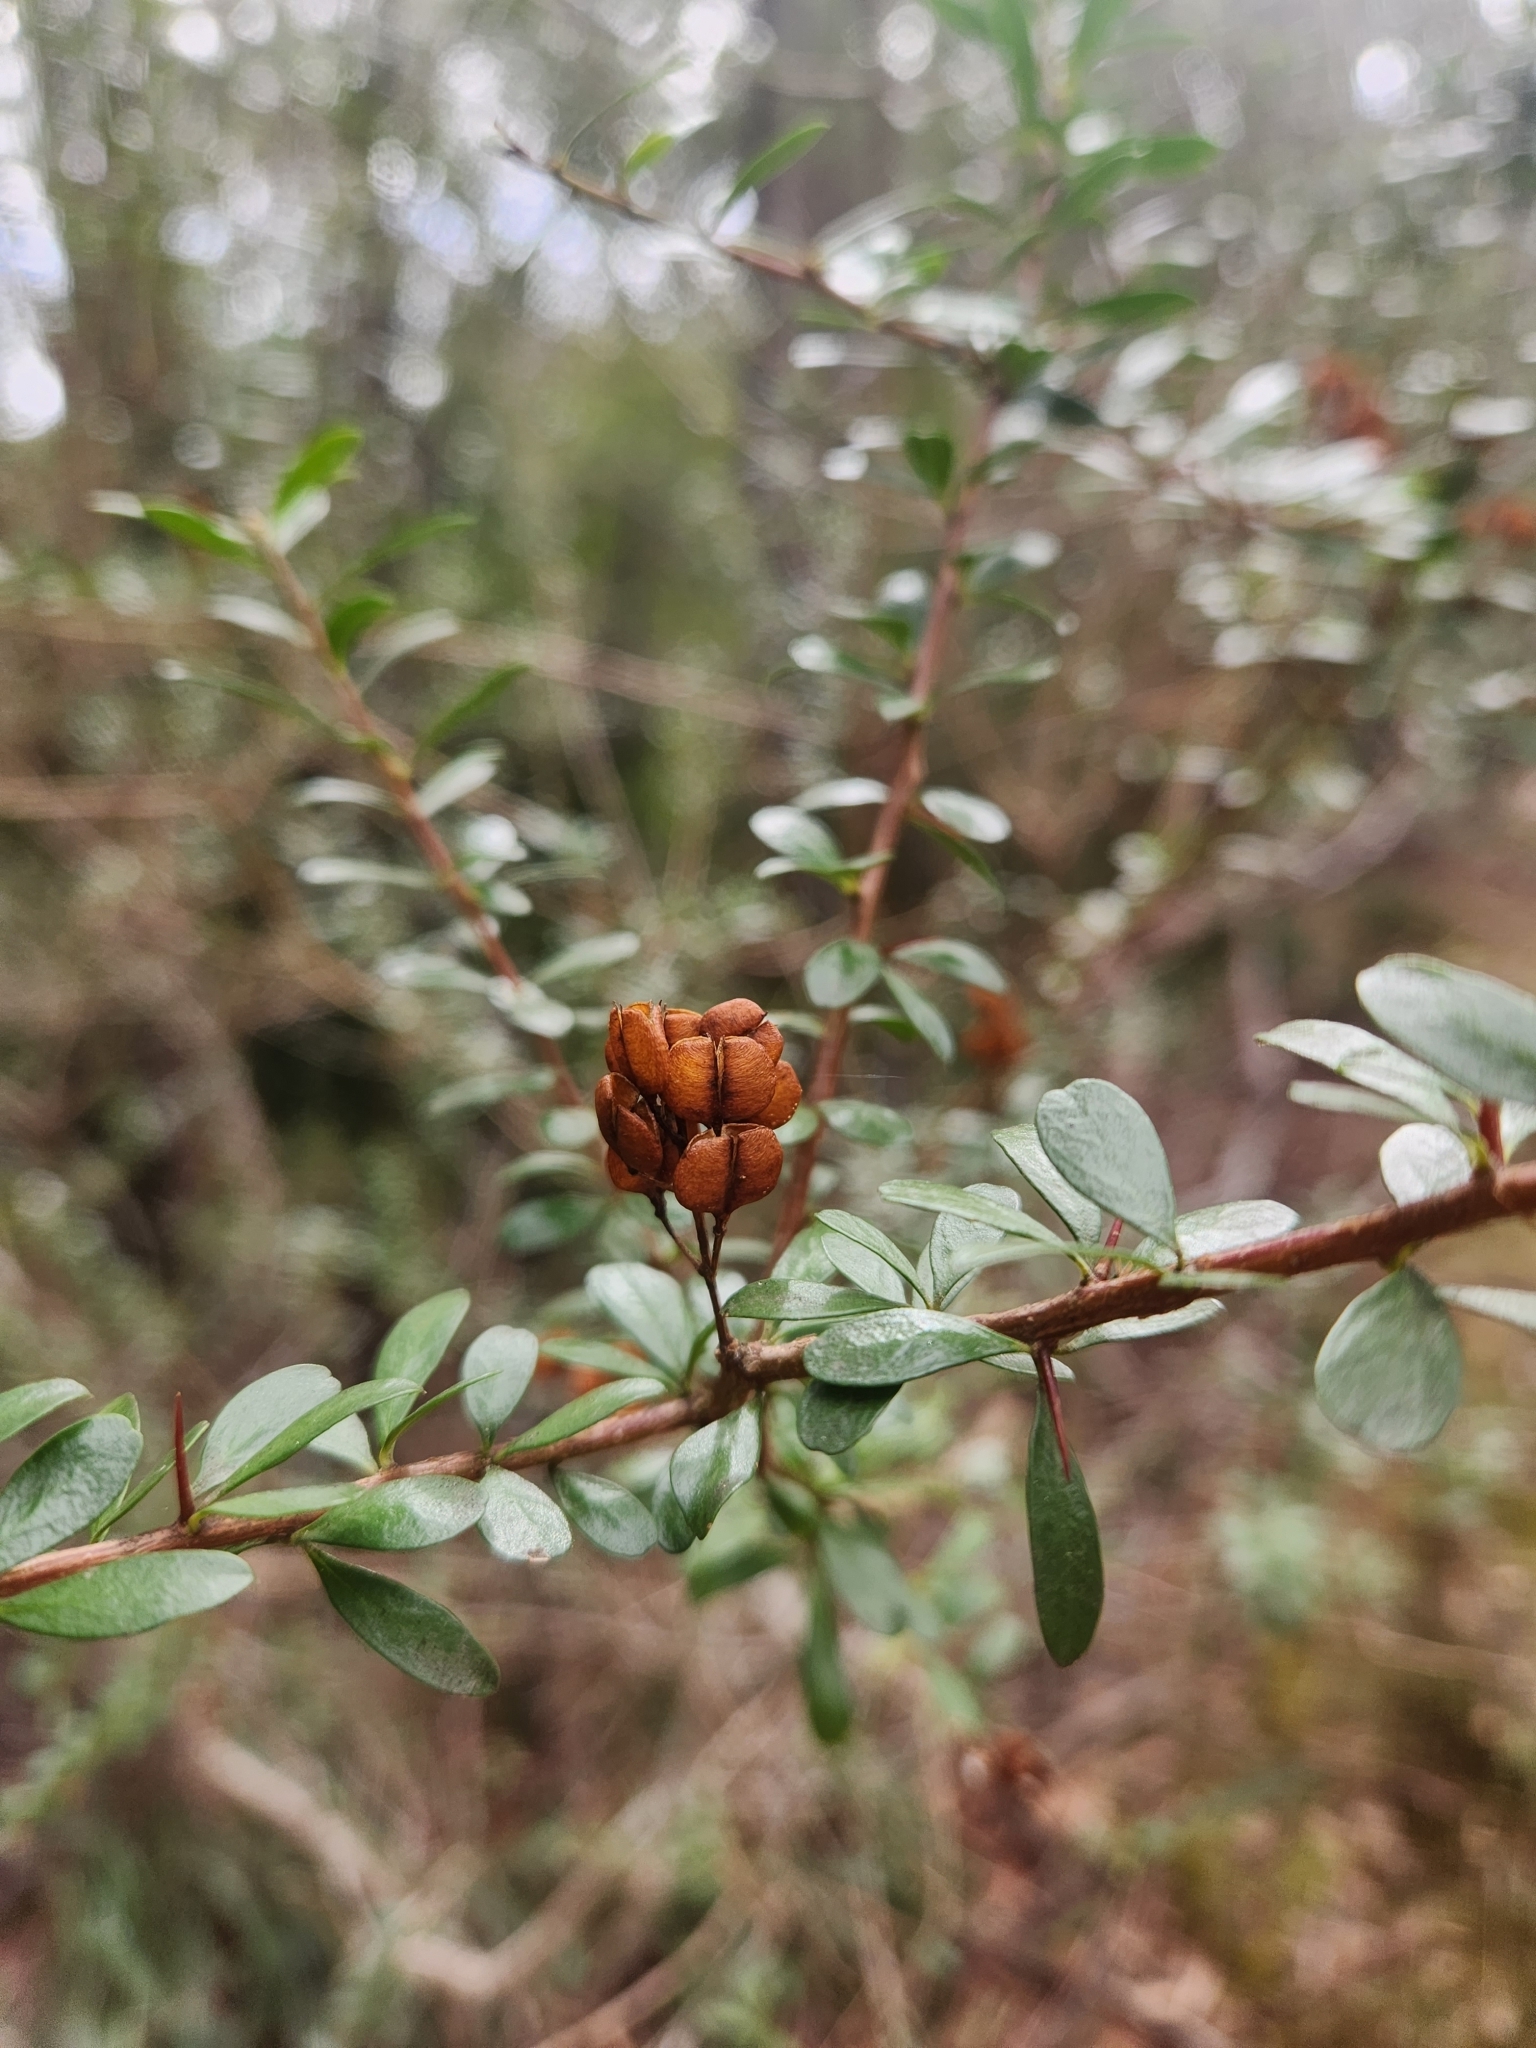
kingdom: Plantae
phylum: Tracheophyta
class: Magnoliopsida
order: Apiales
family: Pittosporaceae
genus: Bursaria
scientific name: Bursaria spinosa
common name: Australian blackthorn
